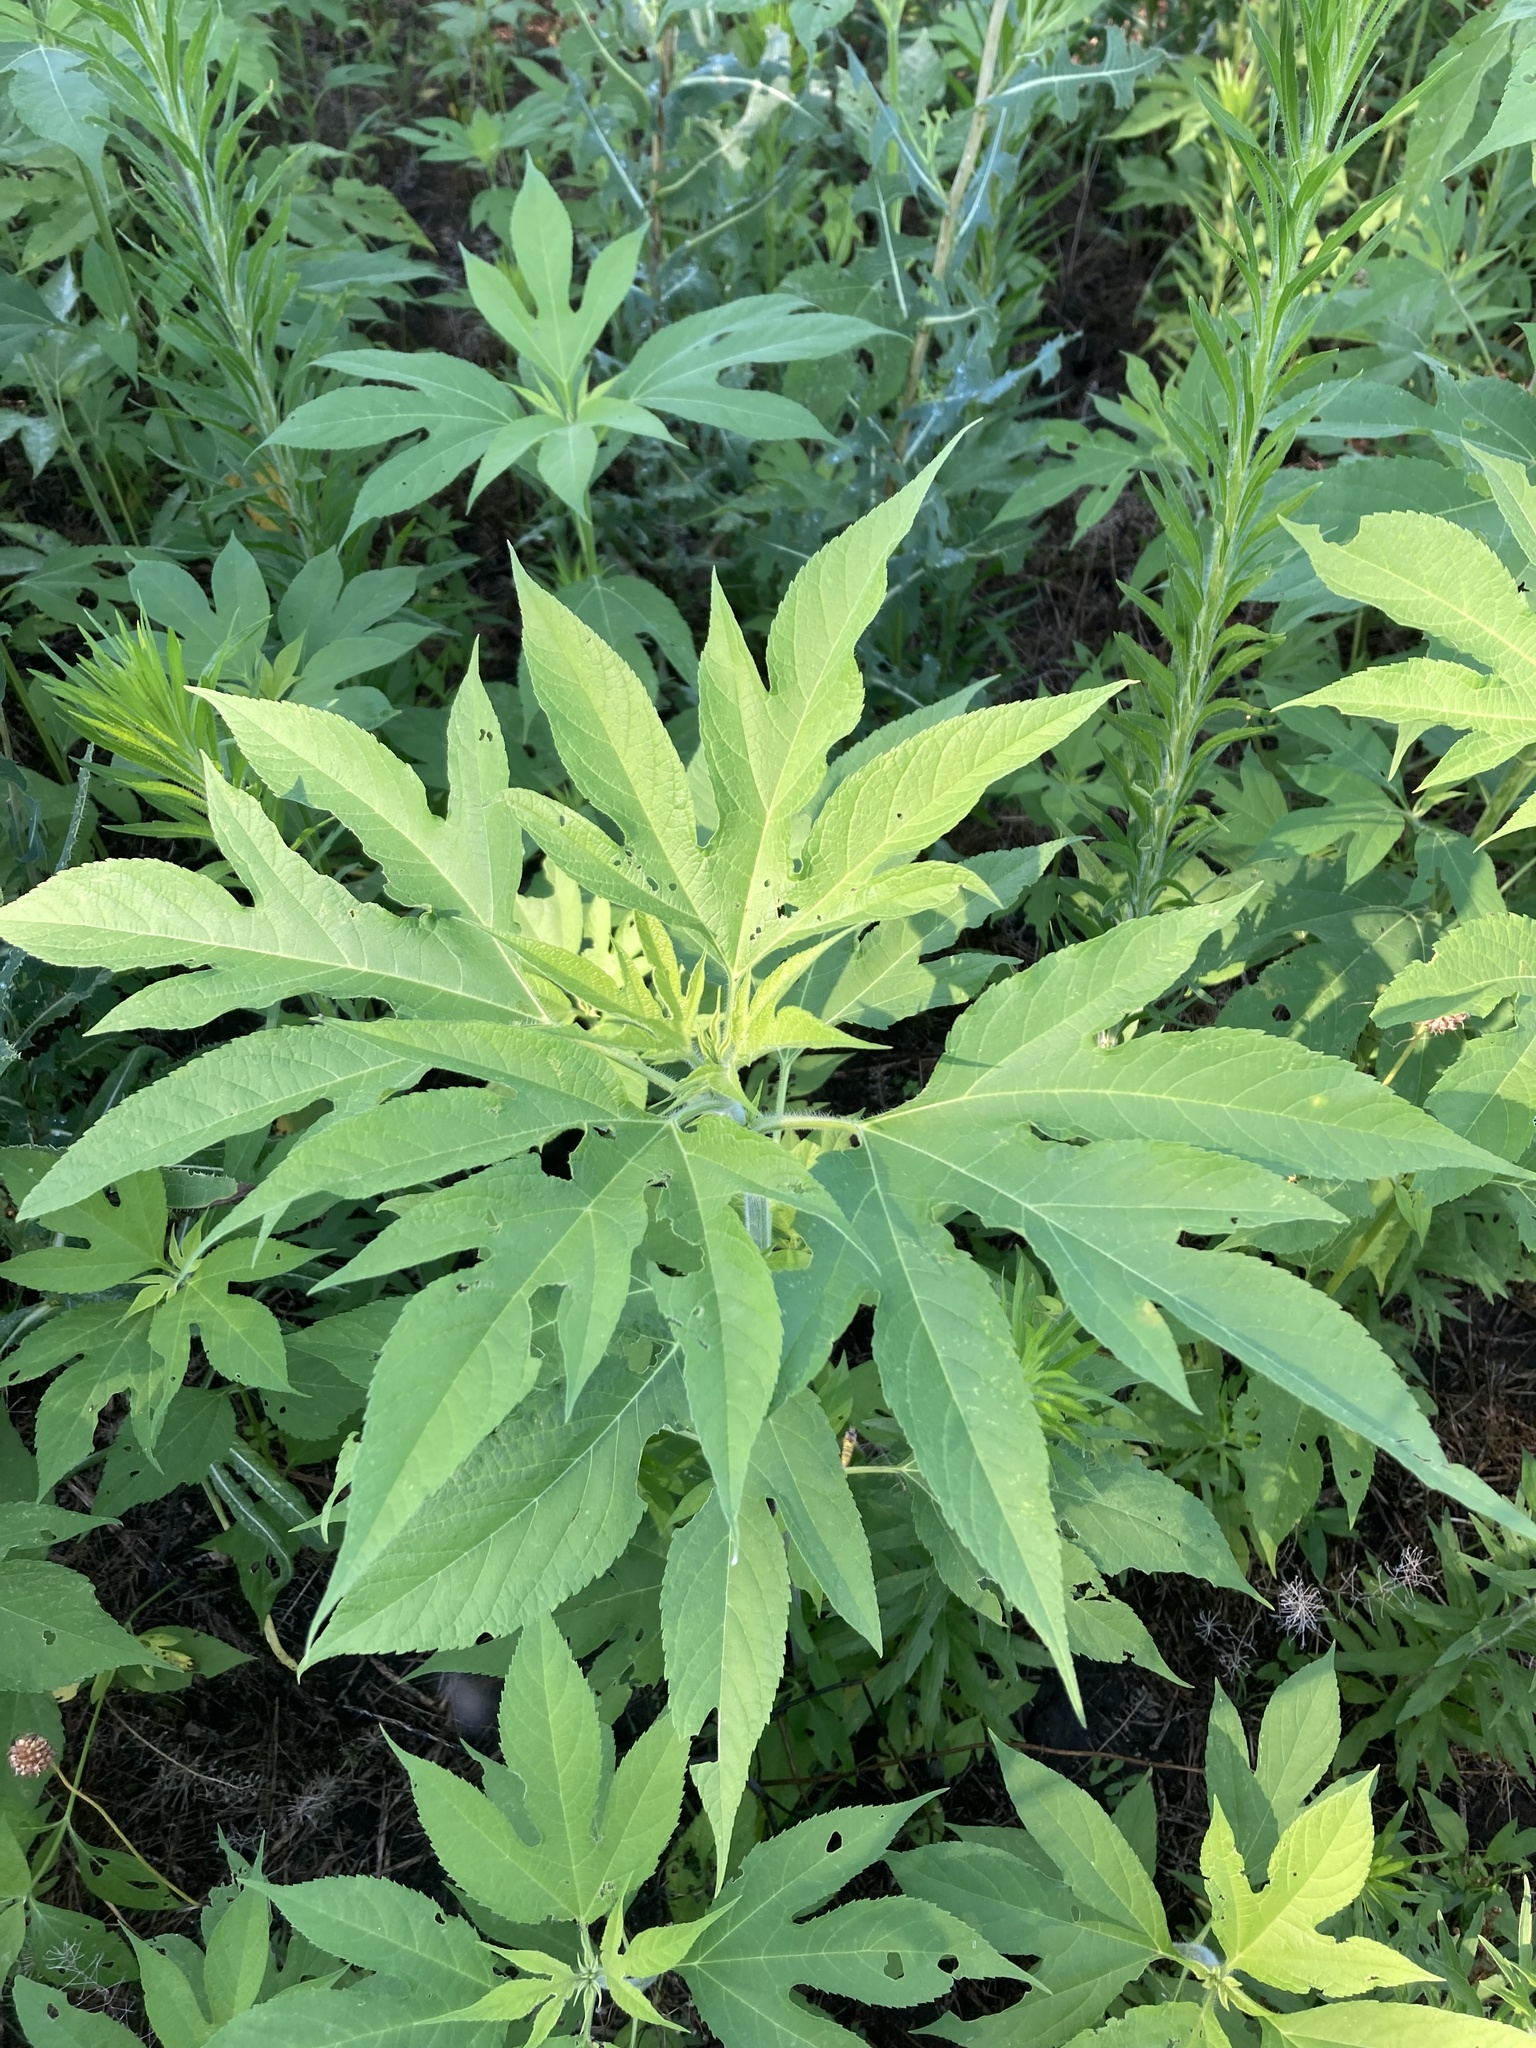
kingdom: Plantae
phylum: Tracheophyta
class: Magnoliopsida
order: Asterales
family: Asteraceae
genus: Ambrosia
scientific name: Ambrosia trifida
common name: Giant ragweed
